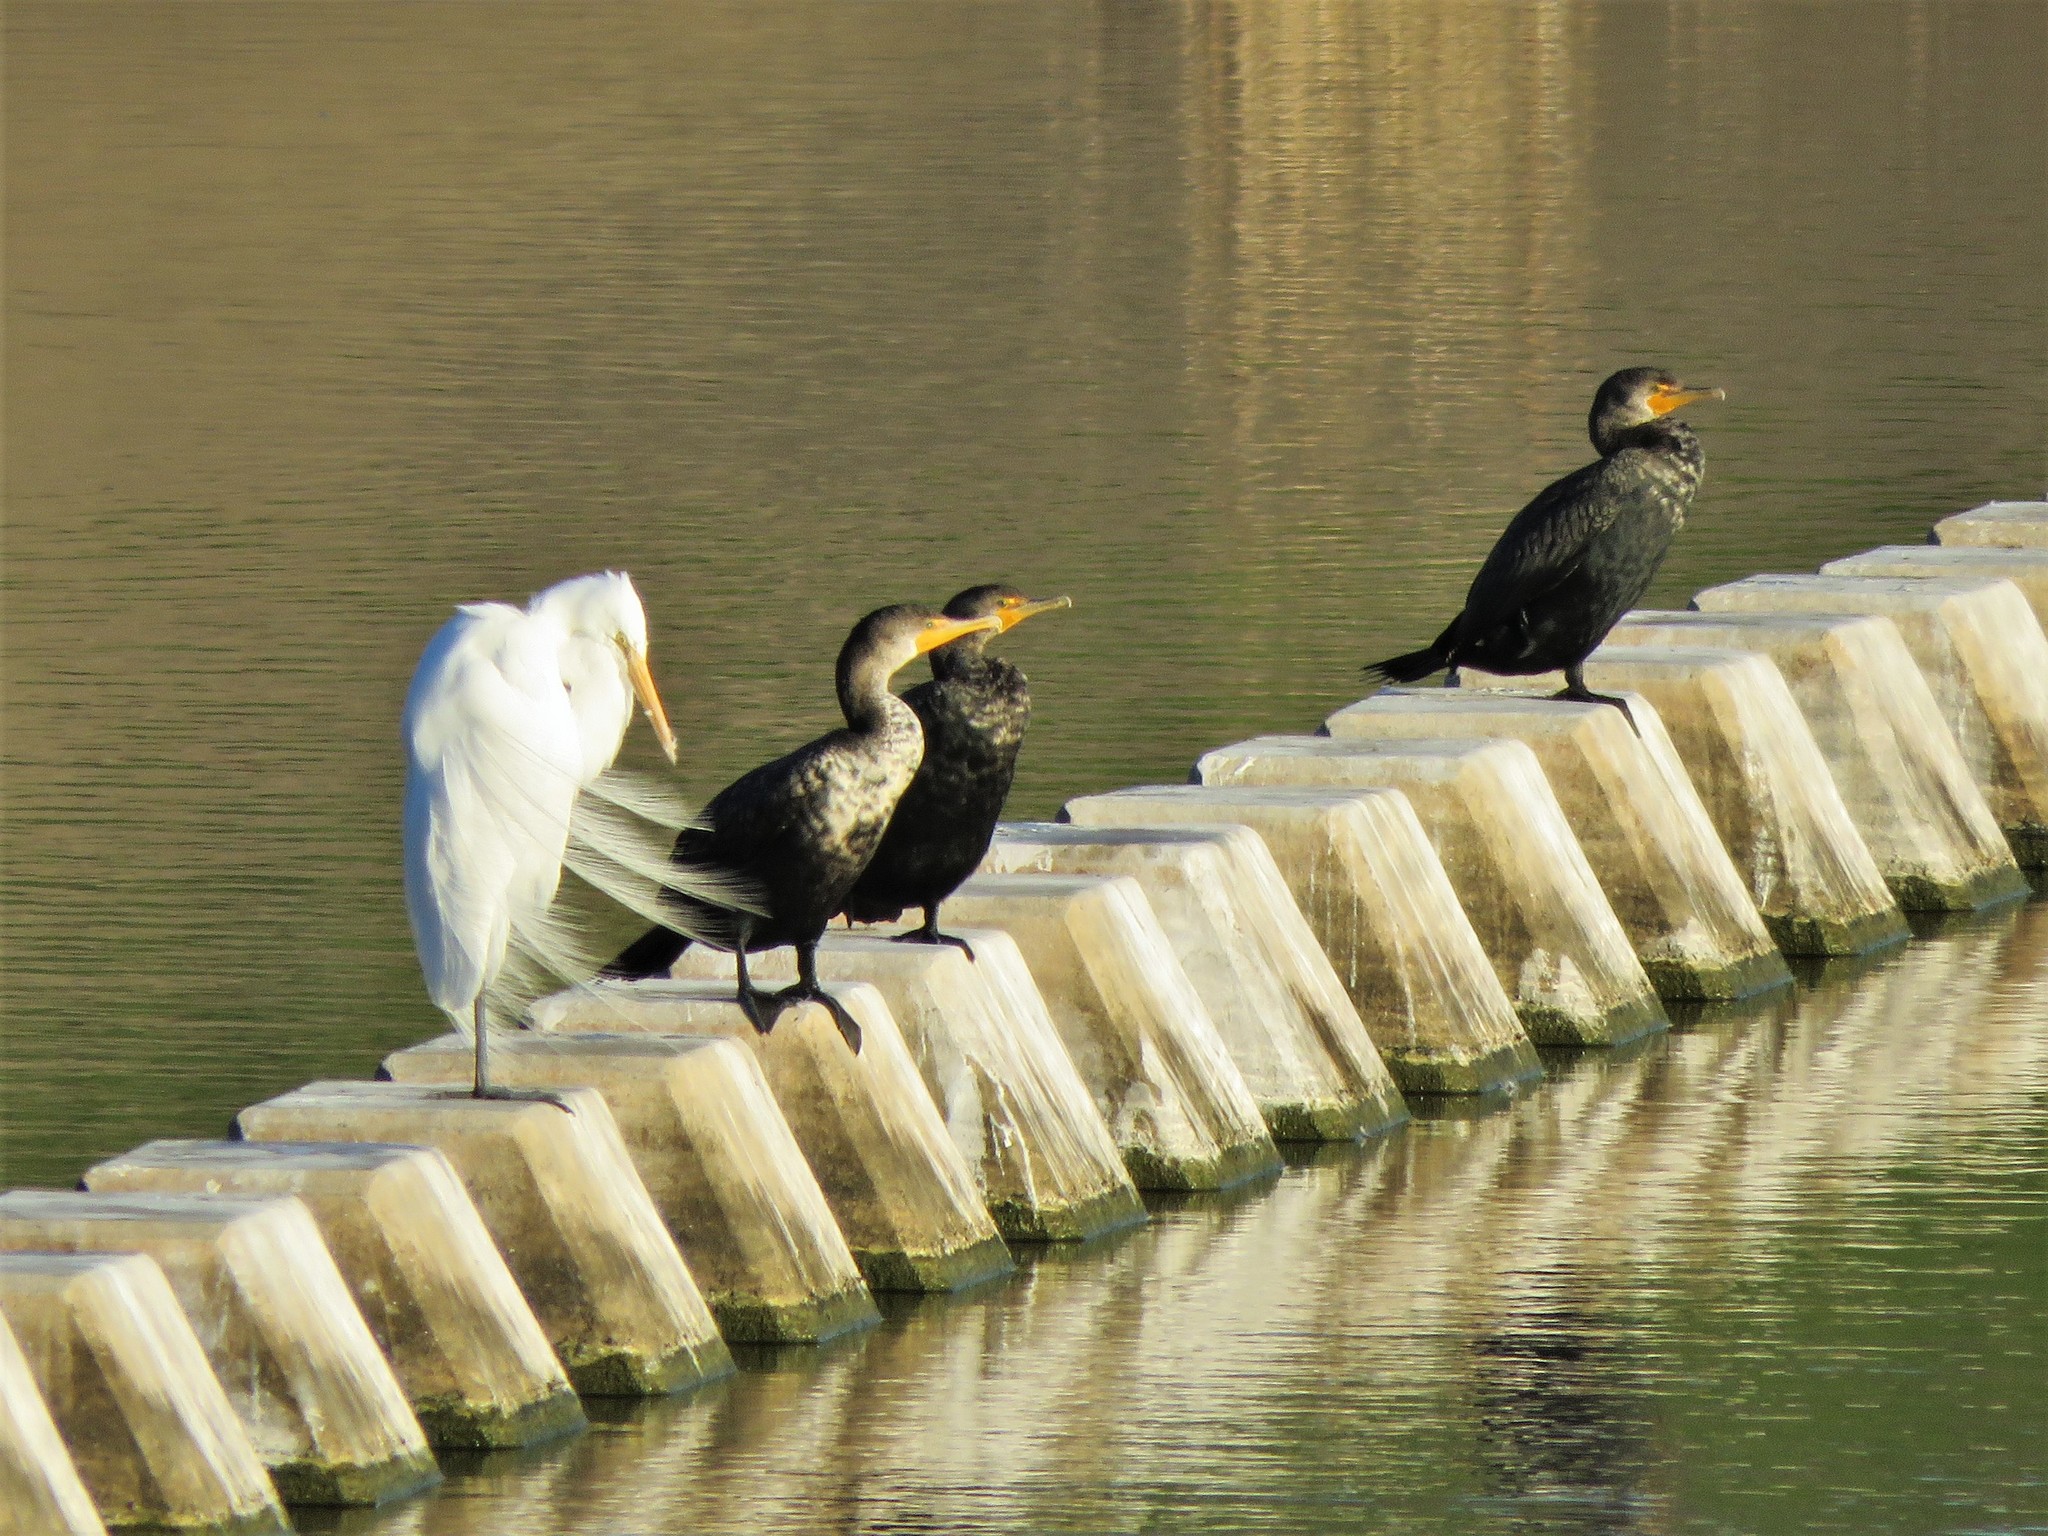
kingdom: Animalia
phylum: Chordata
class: Aves
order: Suliformes
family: Phalacrocoracidae
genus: Phalacrocorax
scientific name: Phalacrocorax auritus
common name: Double-crested cormorant
